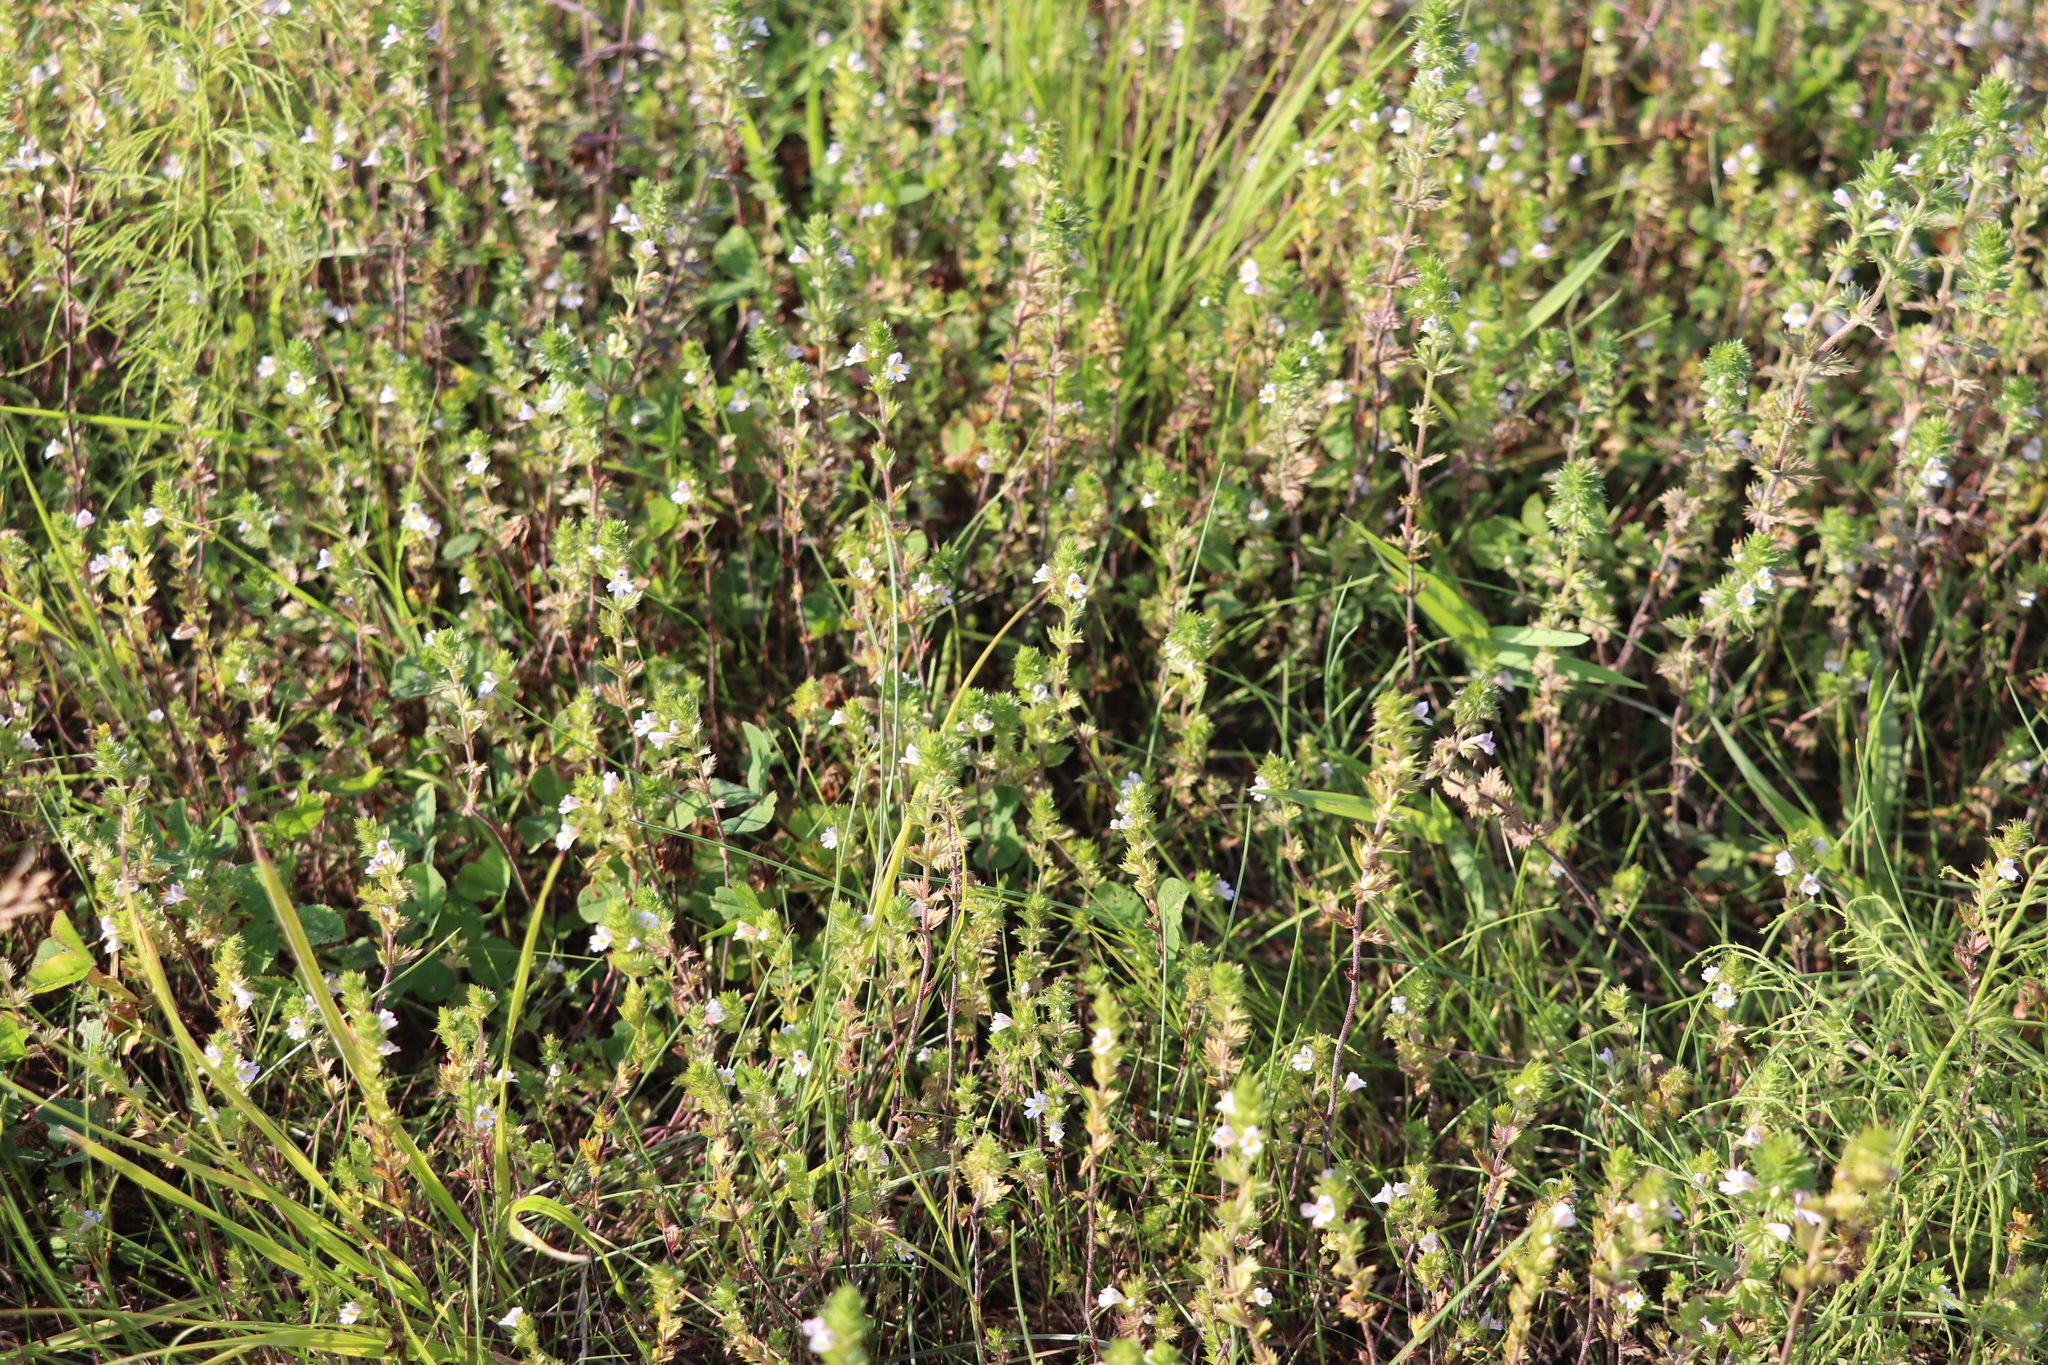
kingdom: Plantae
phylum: Tracheophyta
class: Magnoliopsida
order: Lamiales
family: Orobanchaceae
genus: Euphrasia
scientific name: Euphrasia
